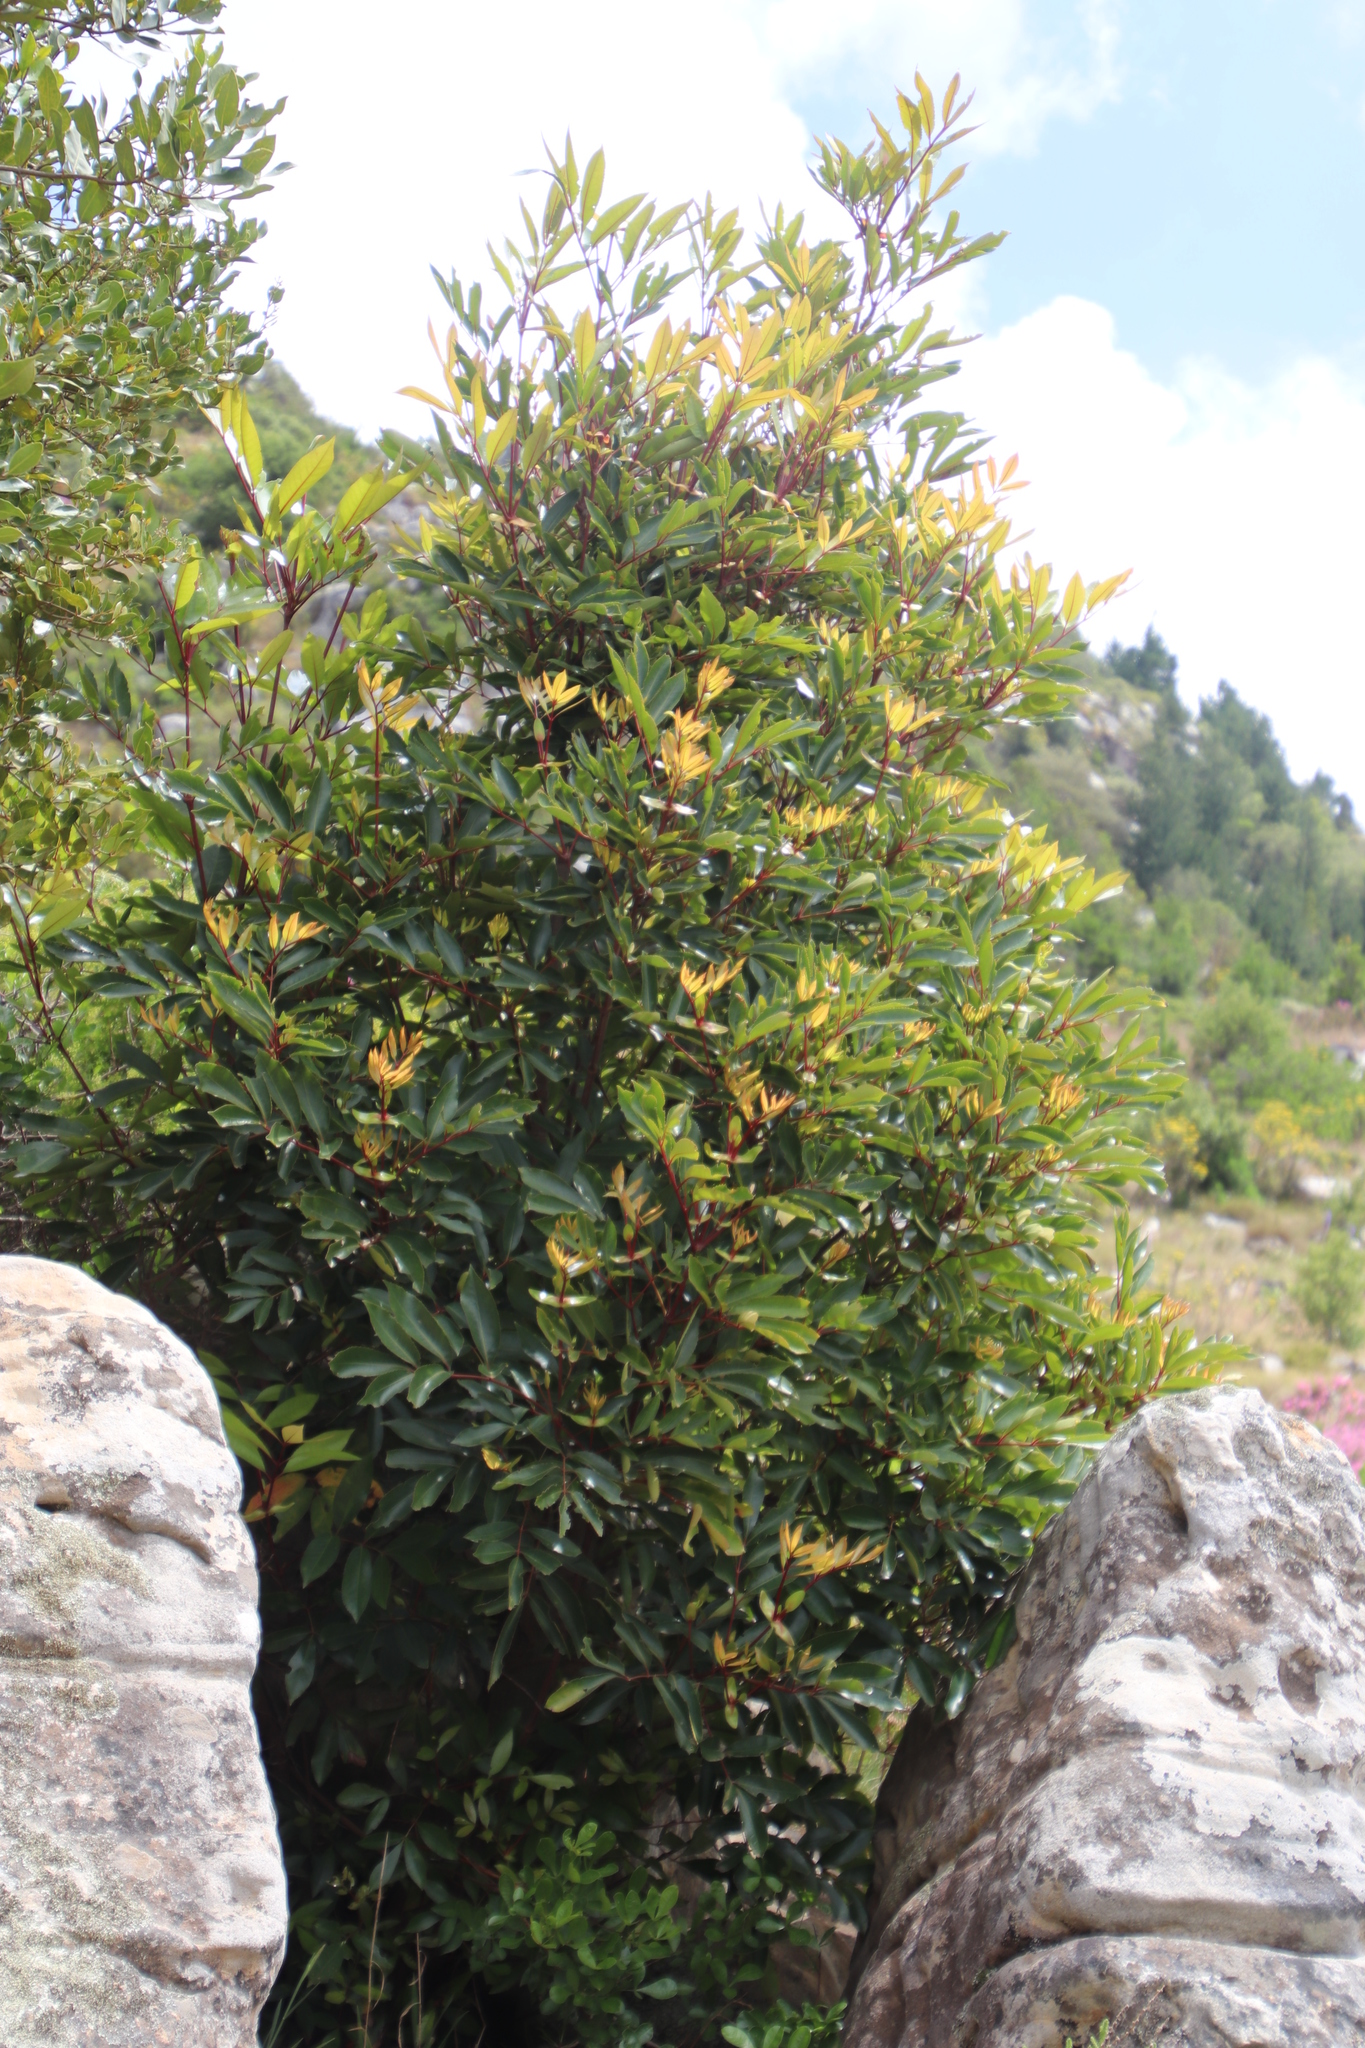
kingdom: Plantae
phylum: Tracheophyta
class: Magnoliopsida
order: Oxalidales
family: Cunoniaceae
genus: Cunonia
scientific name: Cunonia capensis
